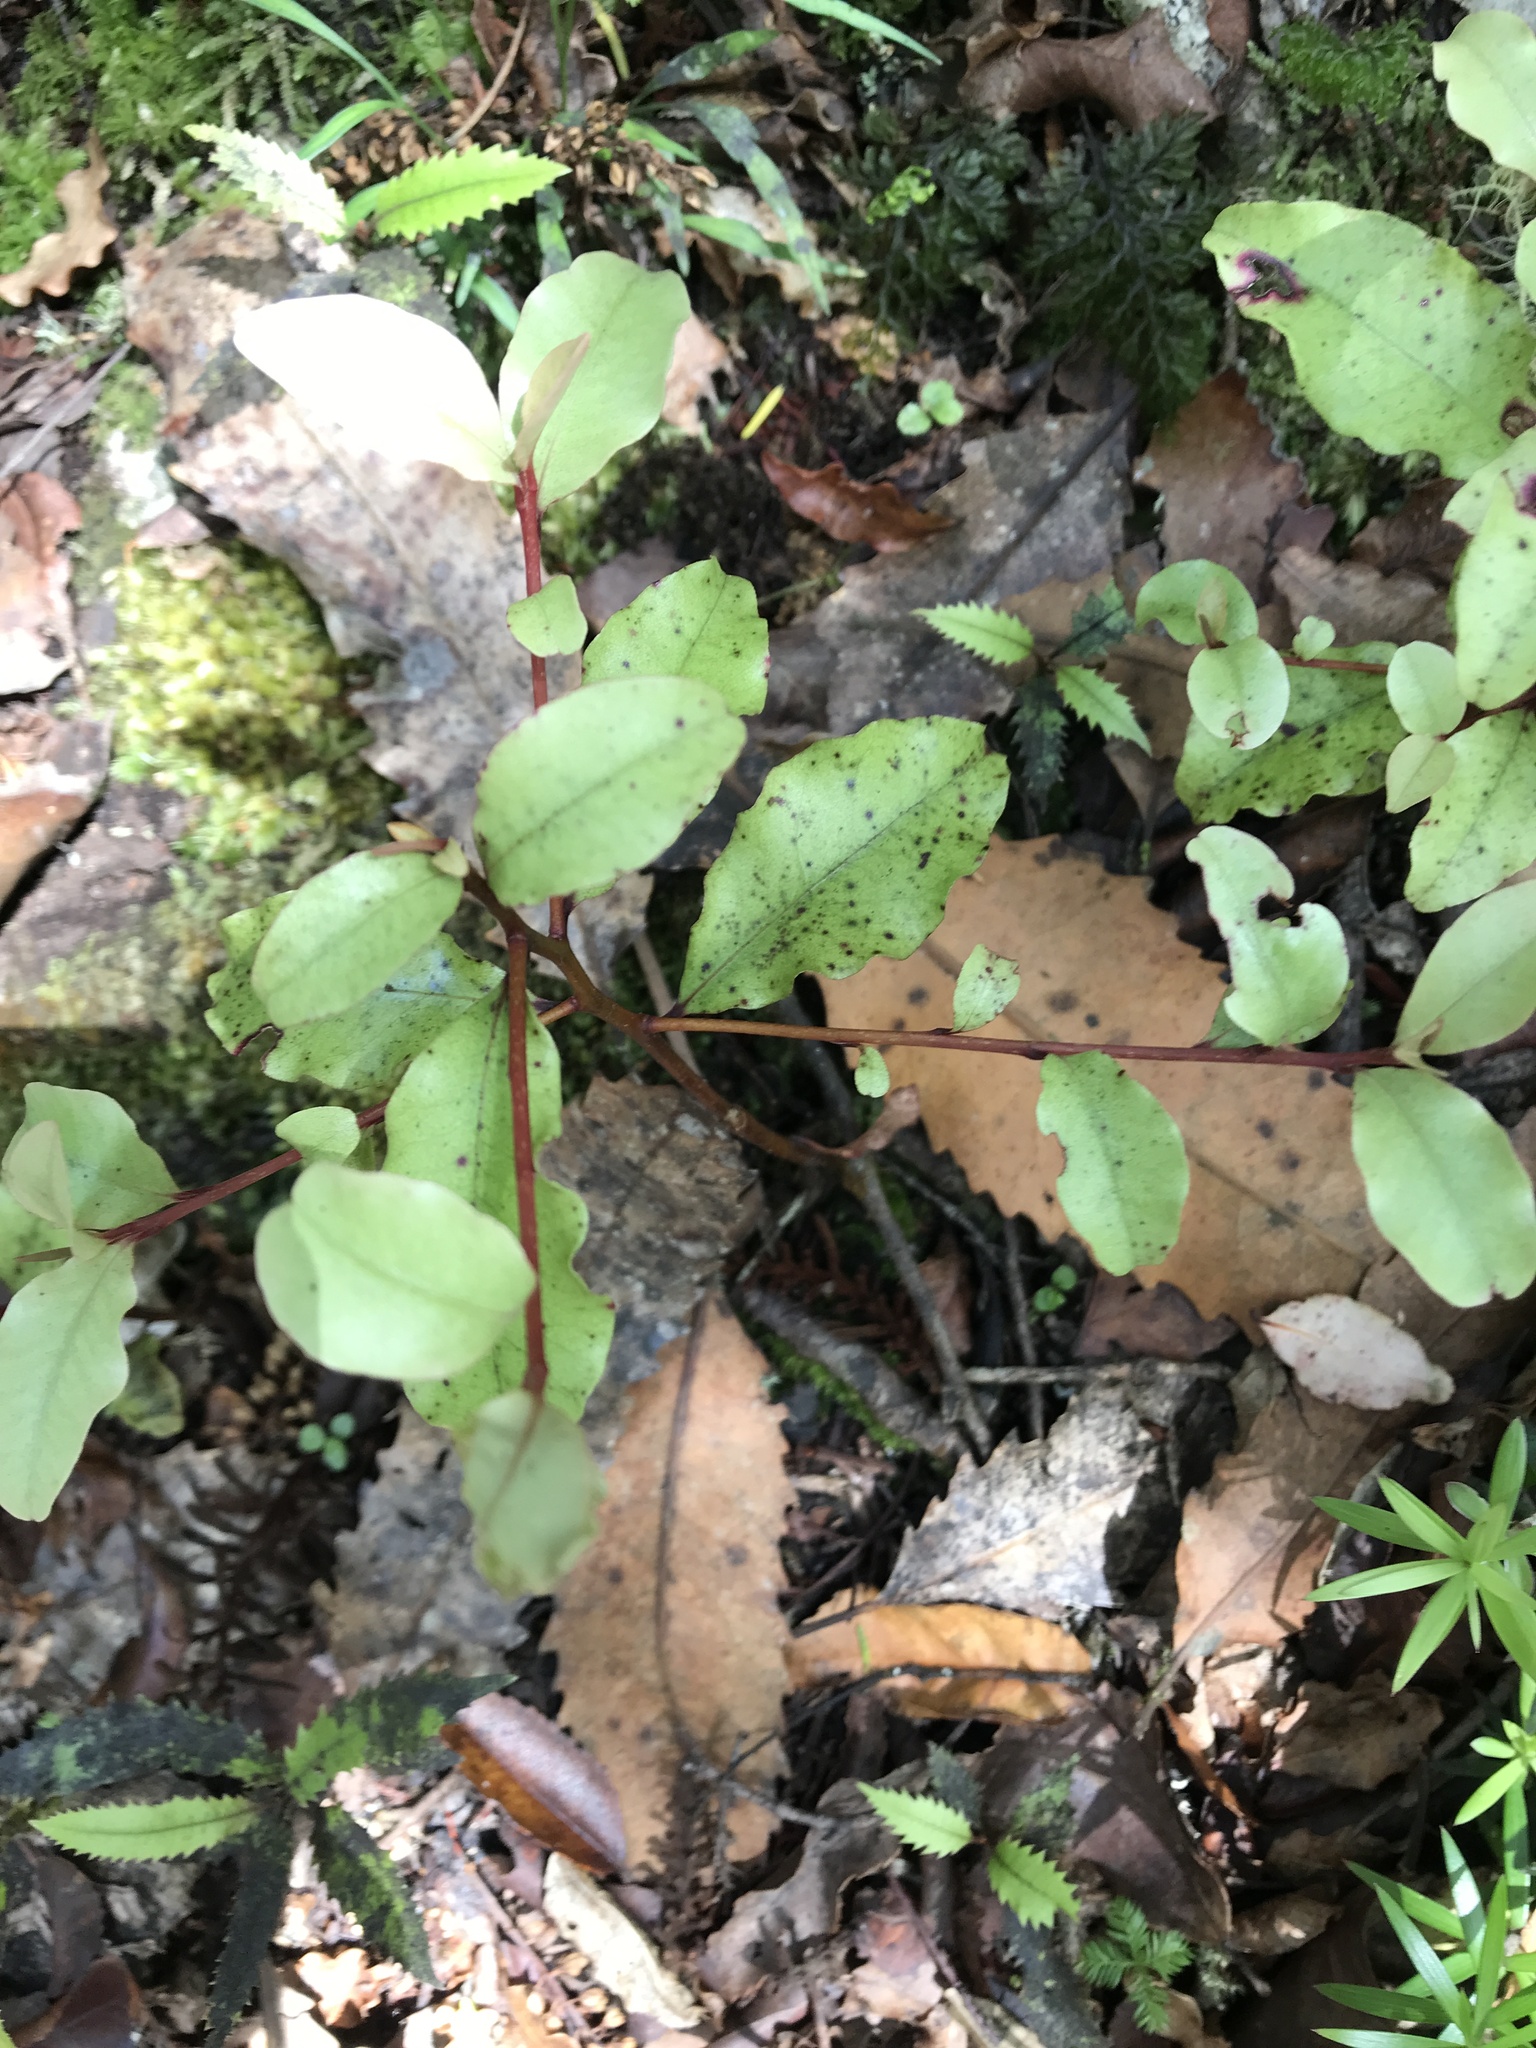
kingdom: Plantae
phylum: Tracheophyta
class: Magnoliopsida
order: Ericales
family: Primulaceae
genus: Myrsine
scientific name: Myrsine australis
